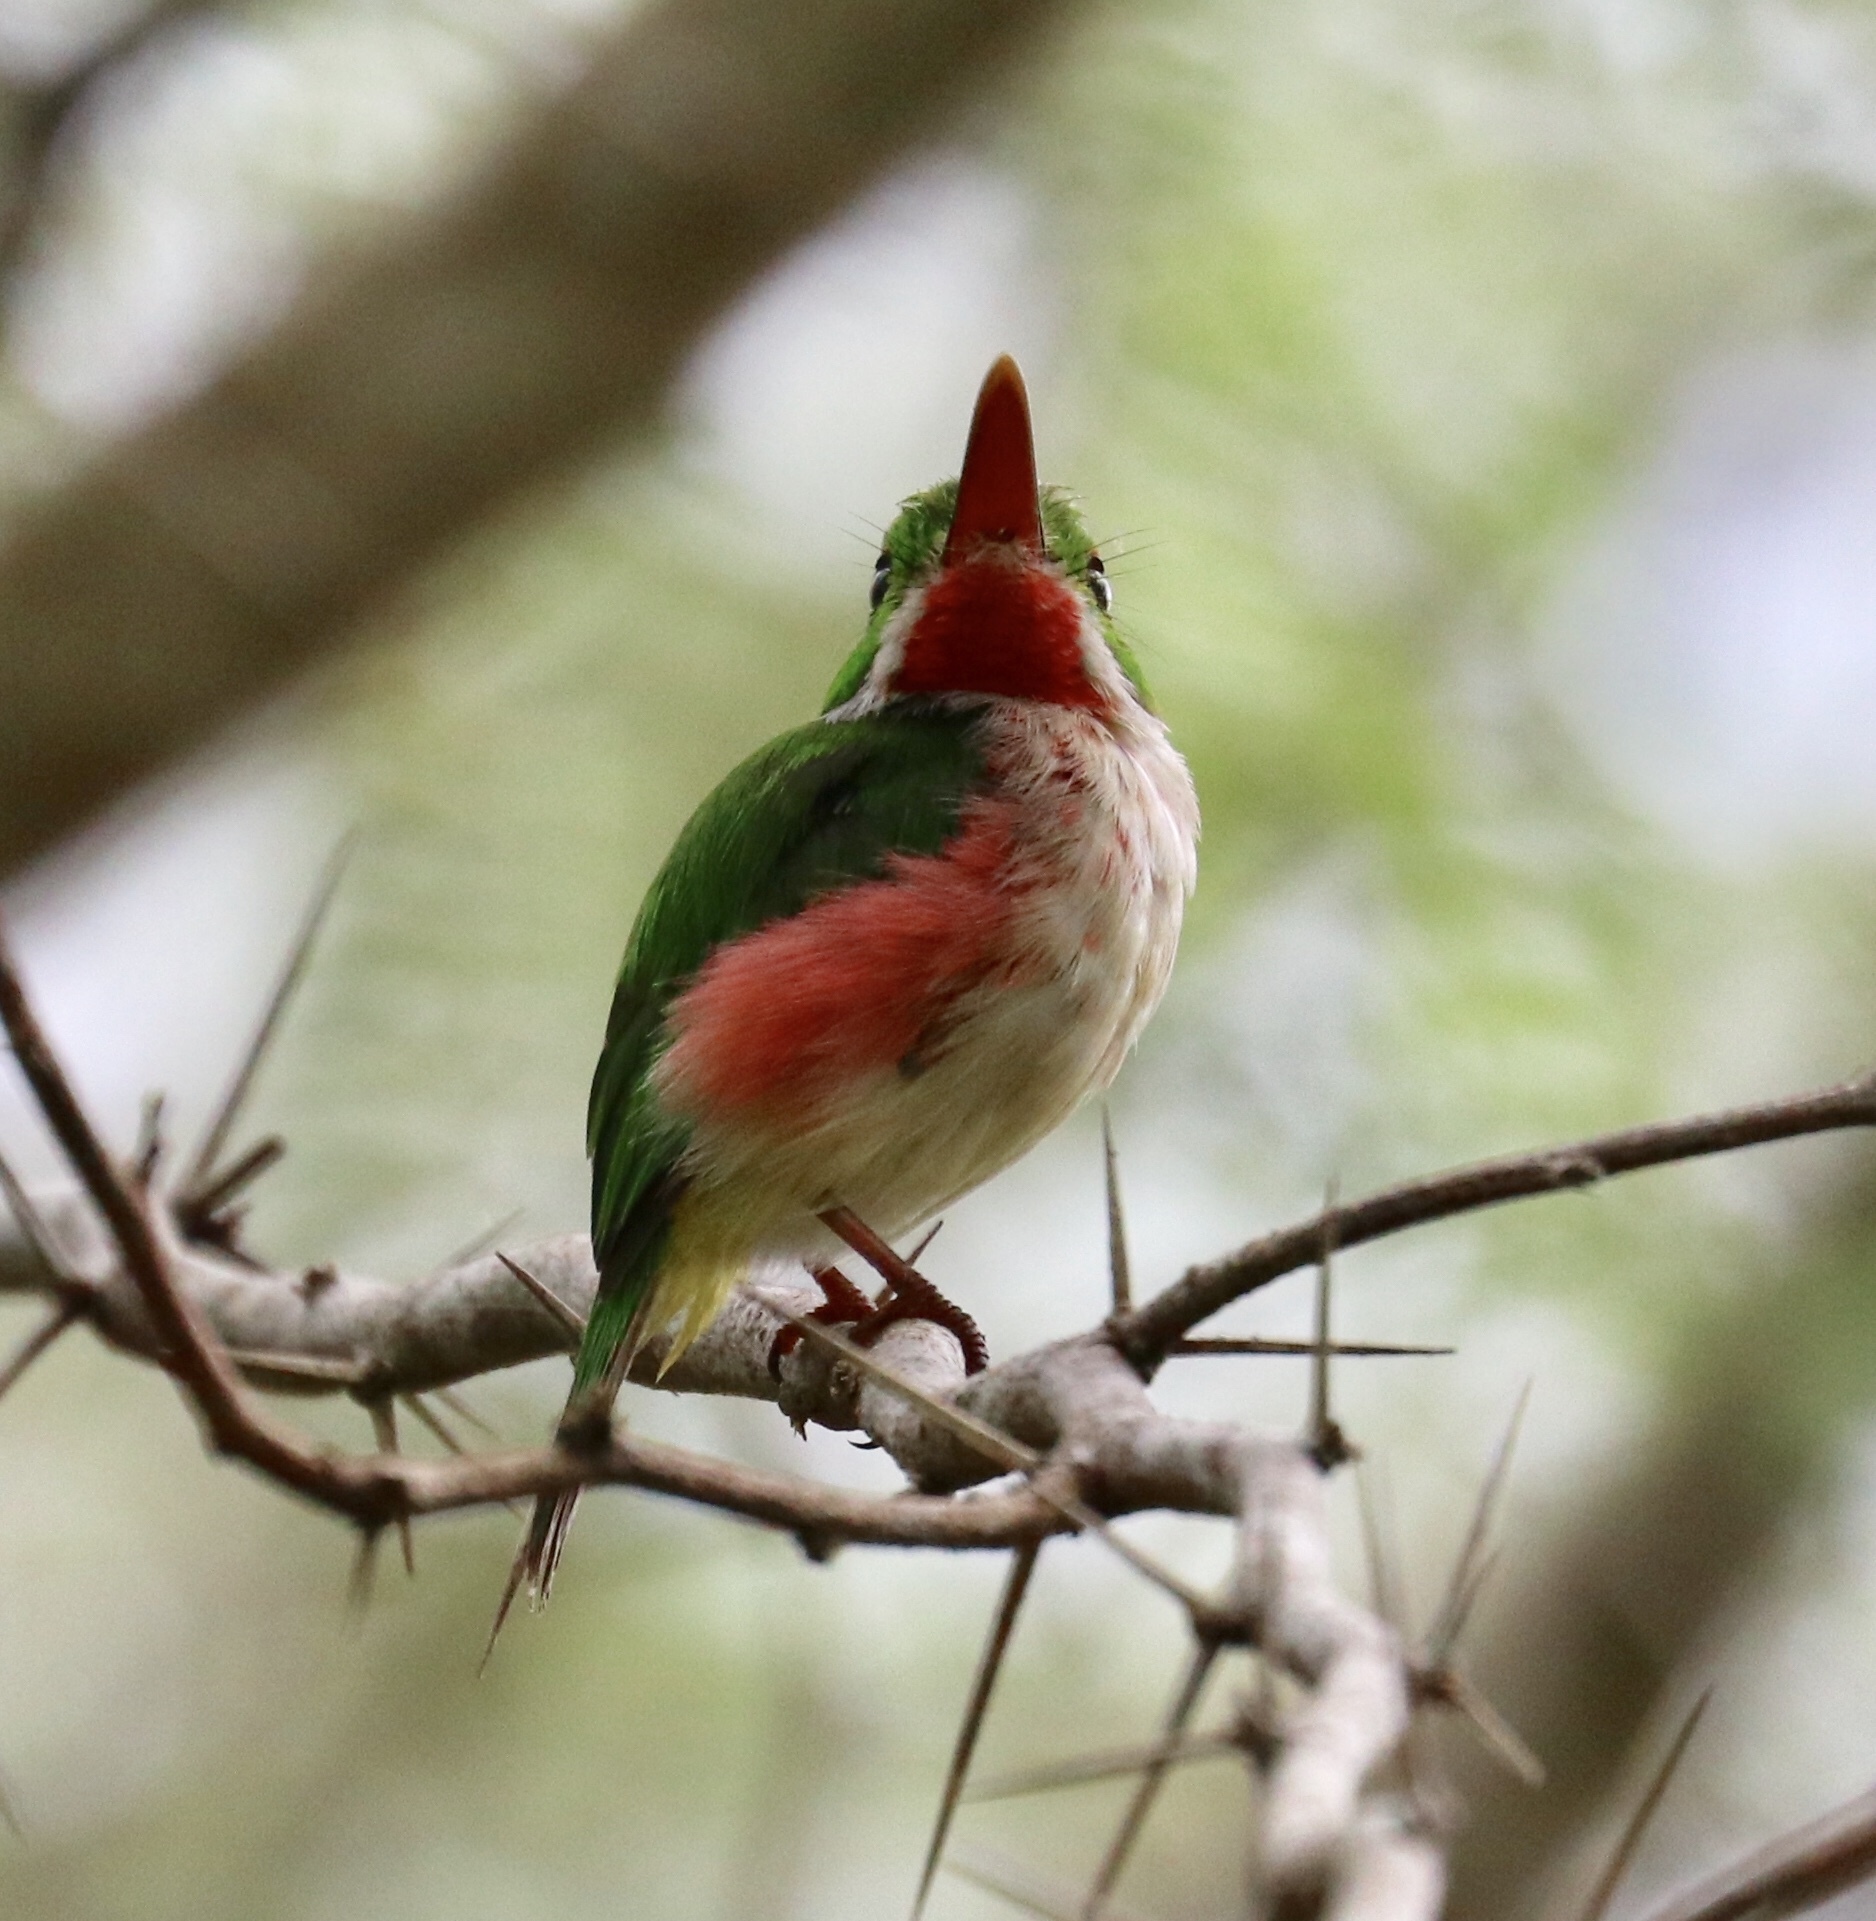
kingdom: Animalia
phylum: Chordata
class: Aves
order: Coraciiformes
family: Todidae
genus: Todus
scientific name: Todus subulatus
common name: Broad-billed tody
